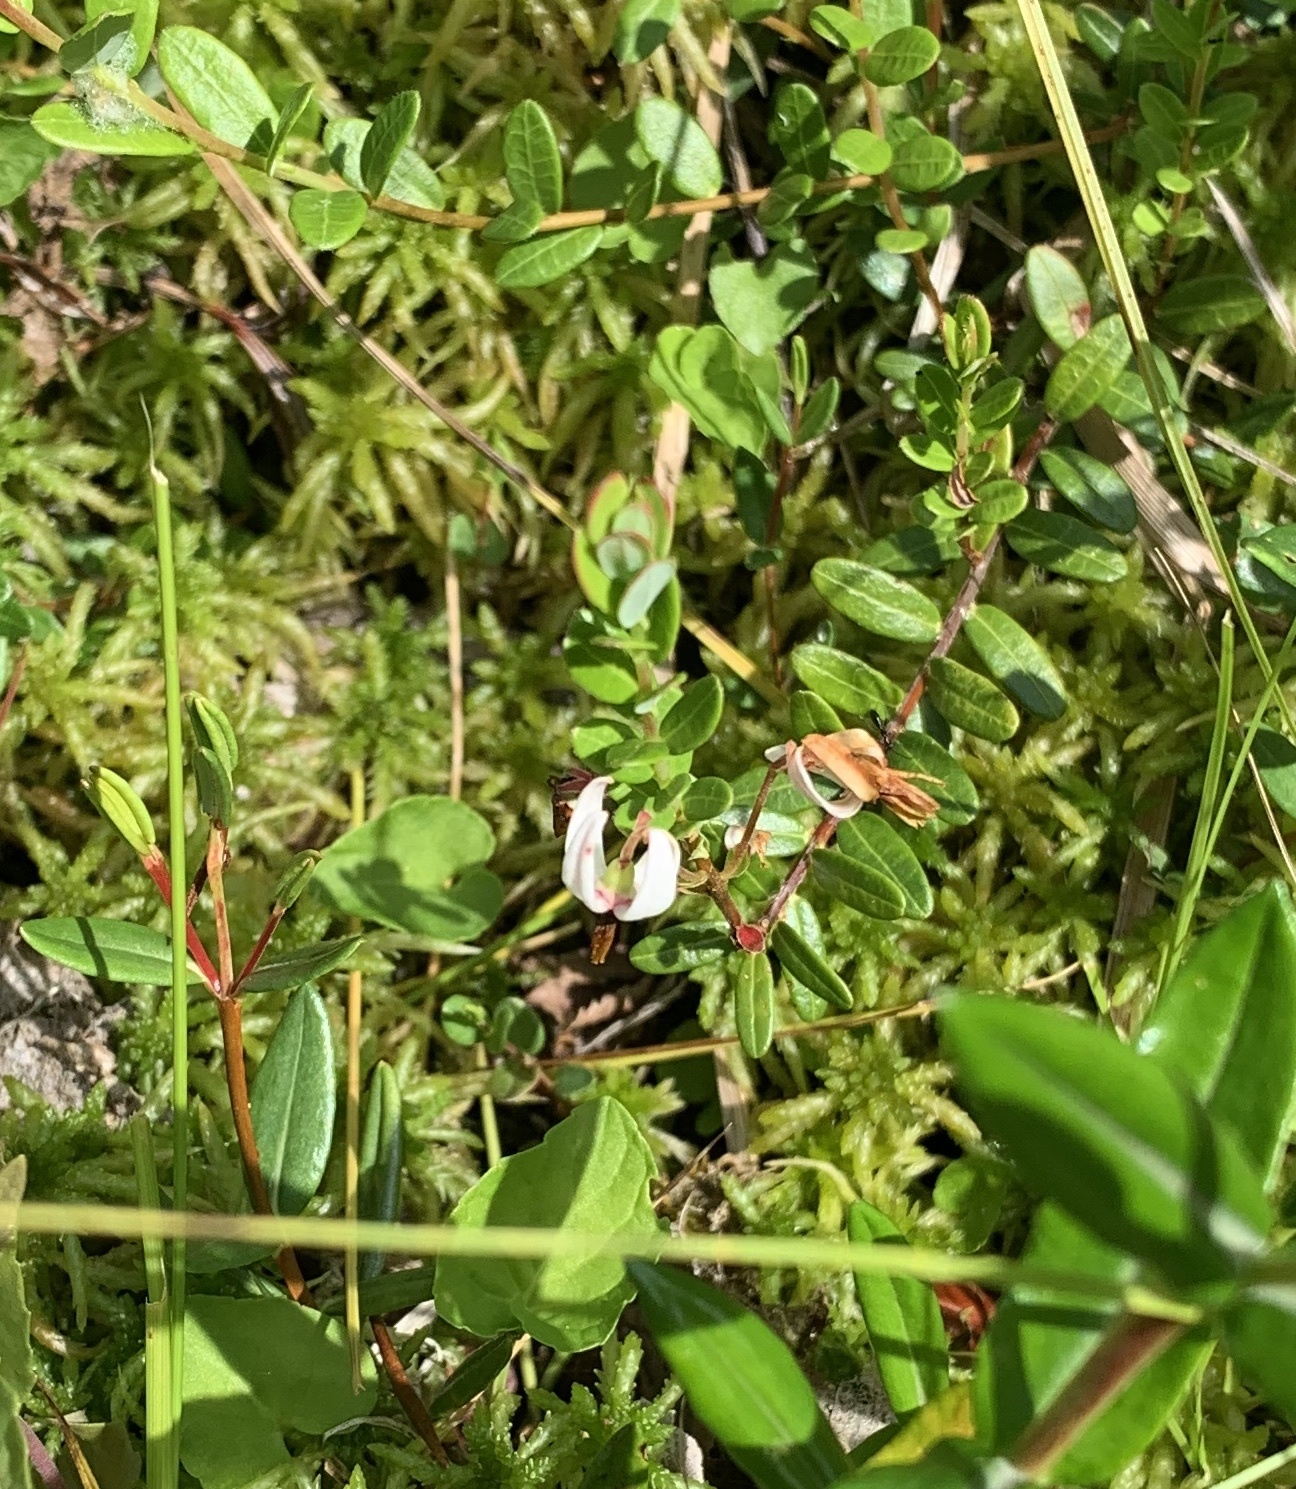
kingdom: Plantae
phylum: Tracheophyta
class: Magnoliopsida
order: Ericales
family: Ericaceae
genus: Vaccinium
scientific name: Vaccinium macrocarpon
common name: American cranberry
